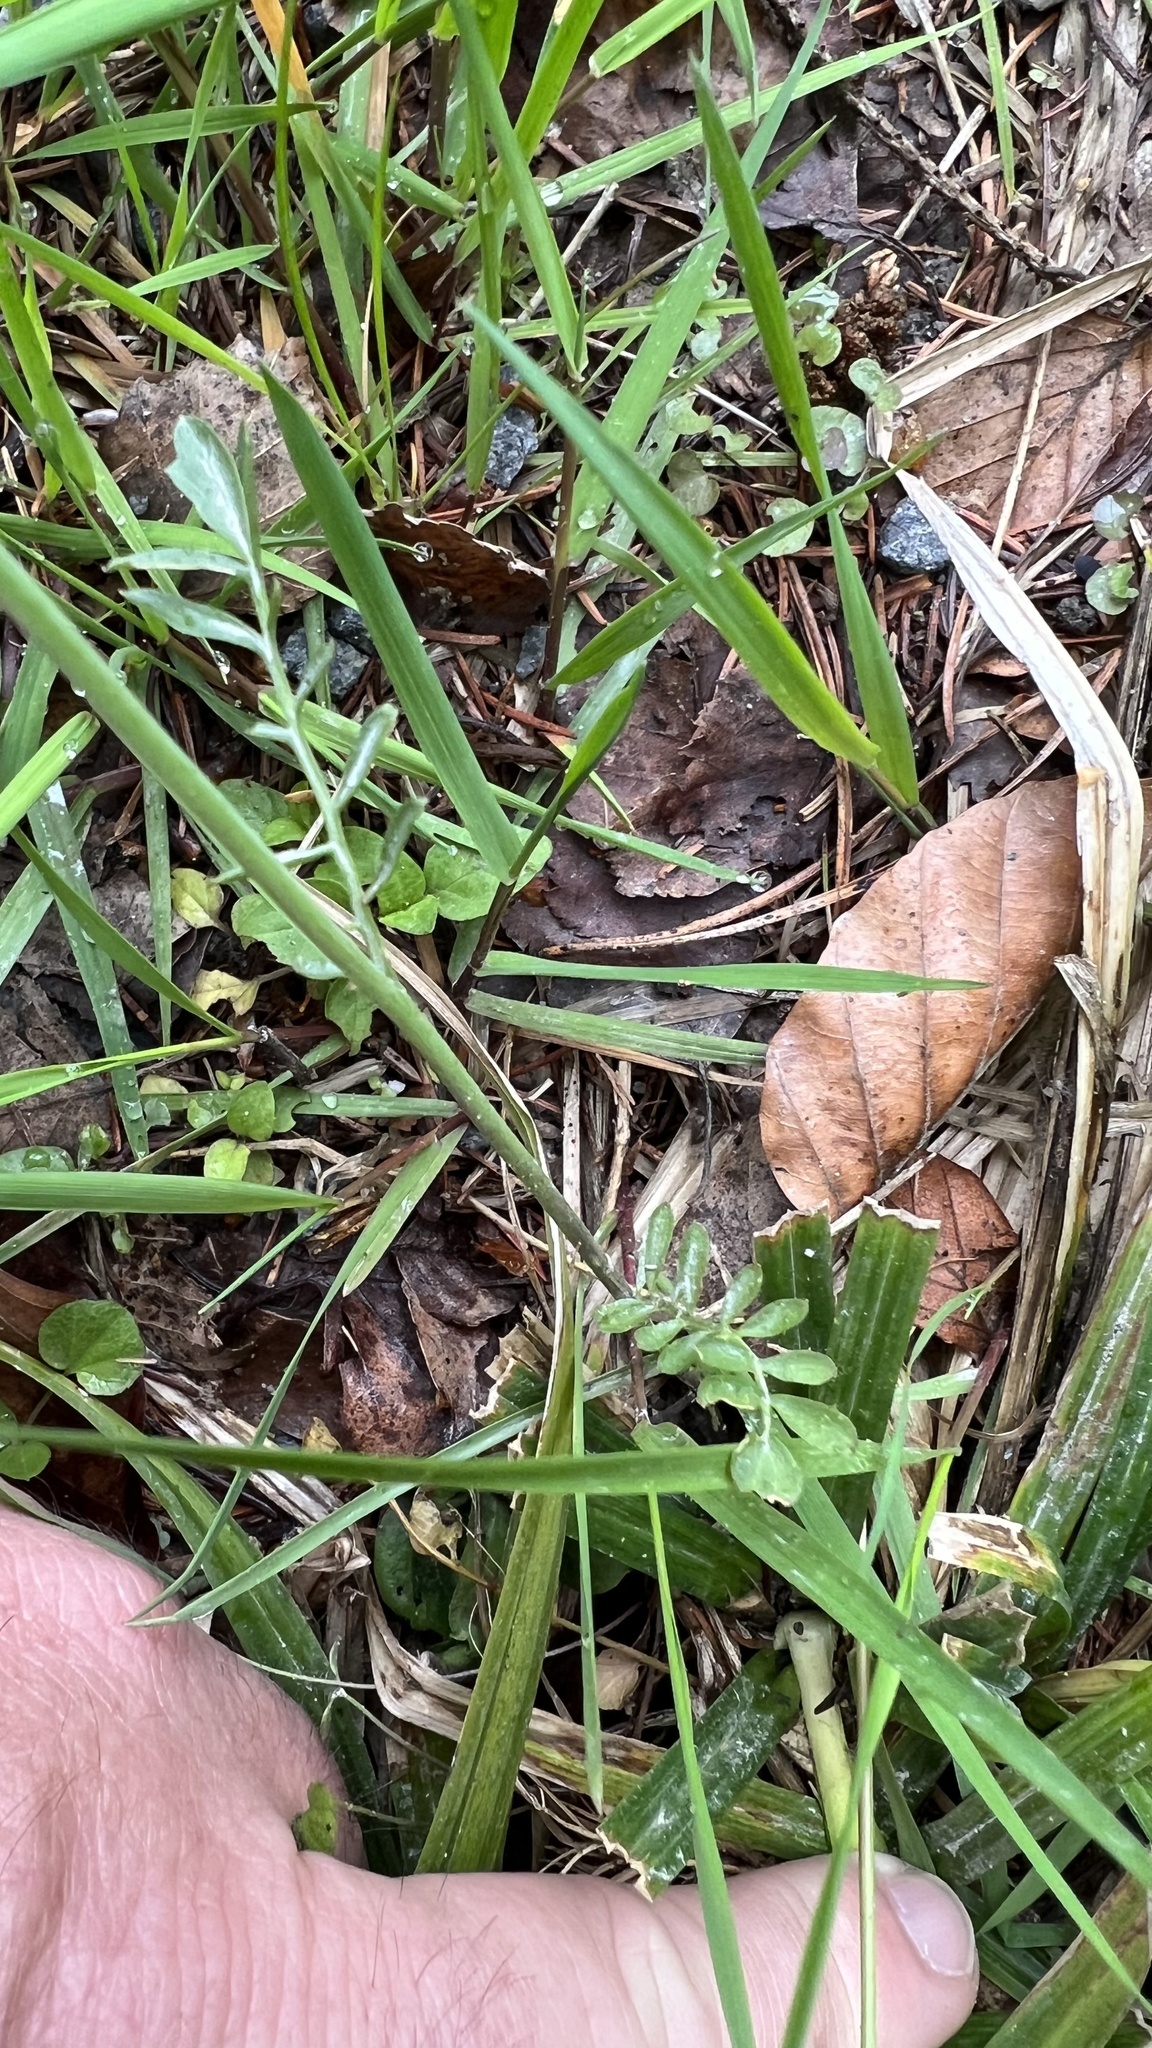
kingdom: Plantae
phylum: Tracheophyta
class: Magnoliopsida
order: Brassicales
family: Brassicaceae
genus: Cardamine
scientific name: Cardamine pratensis
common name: Cuckoo flower
